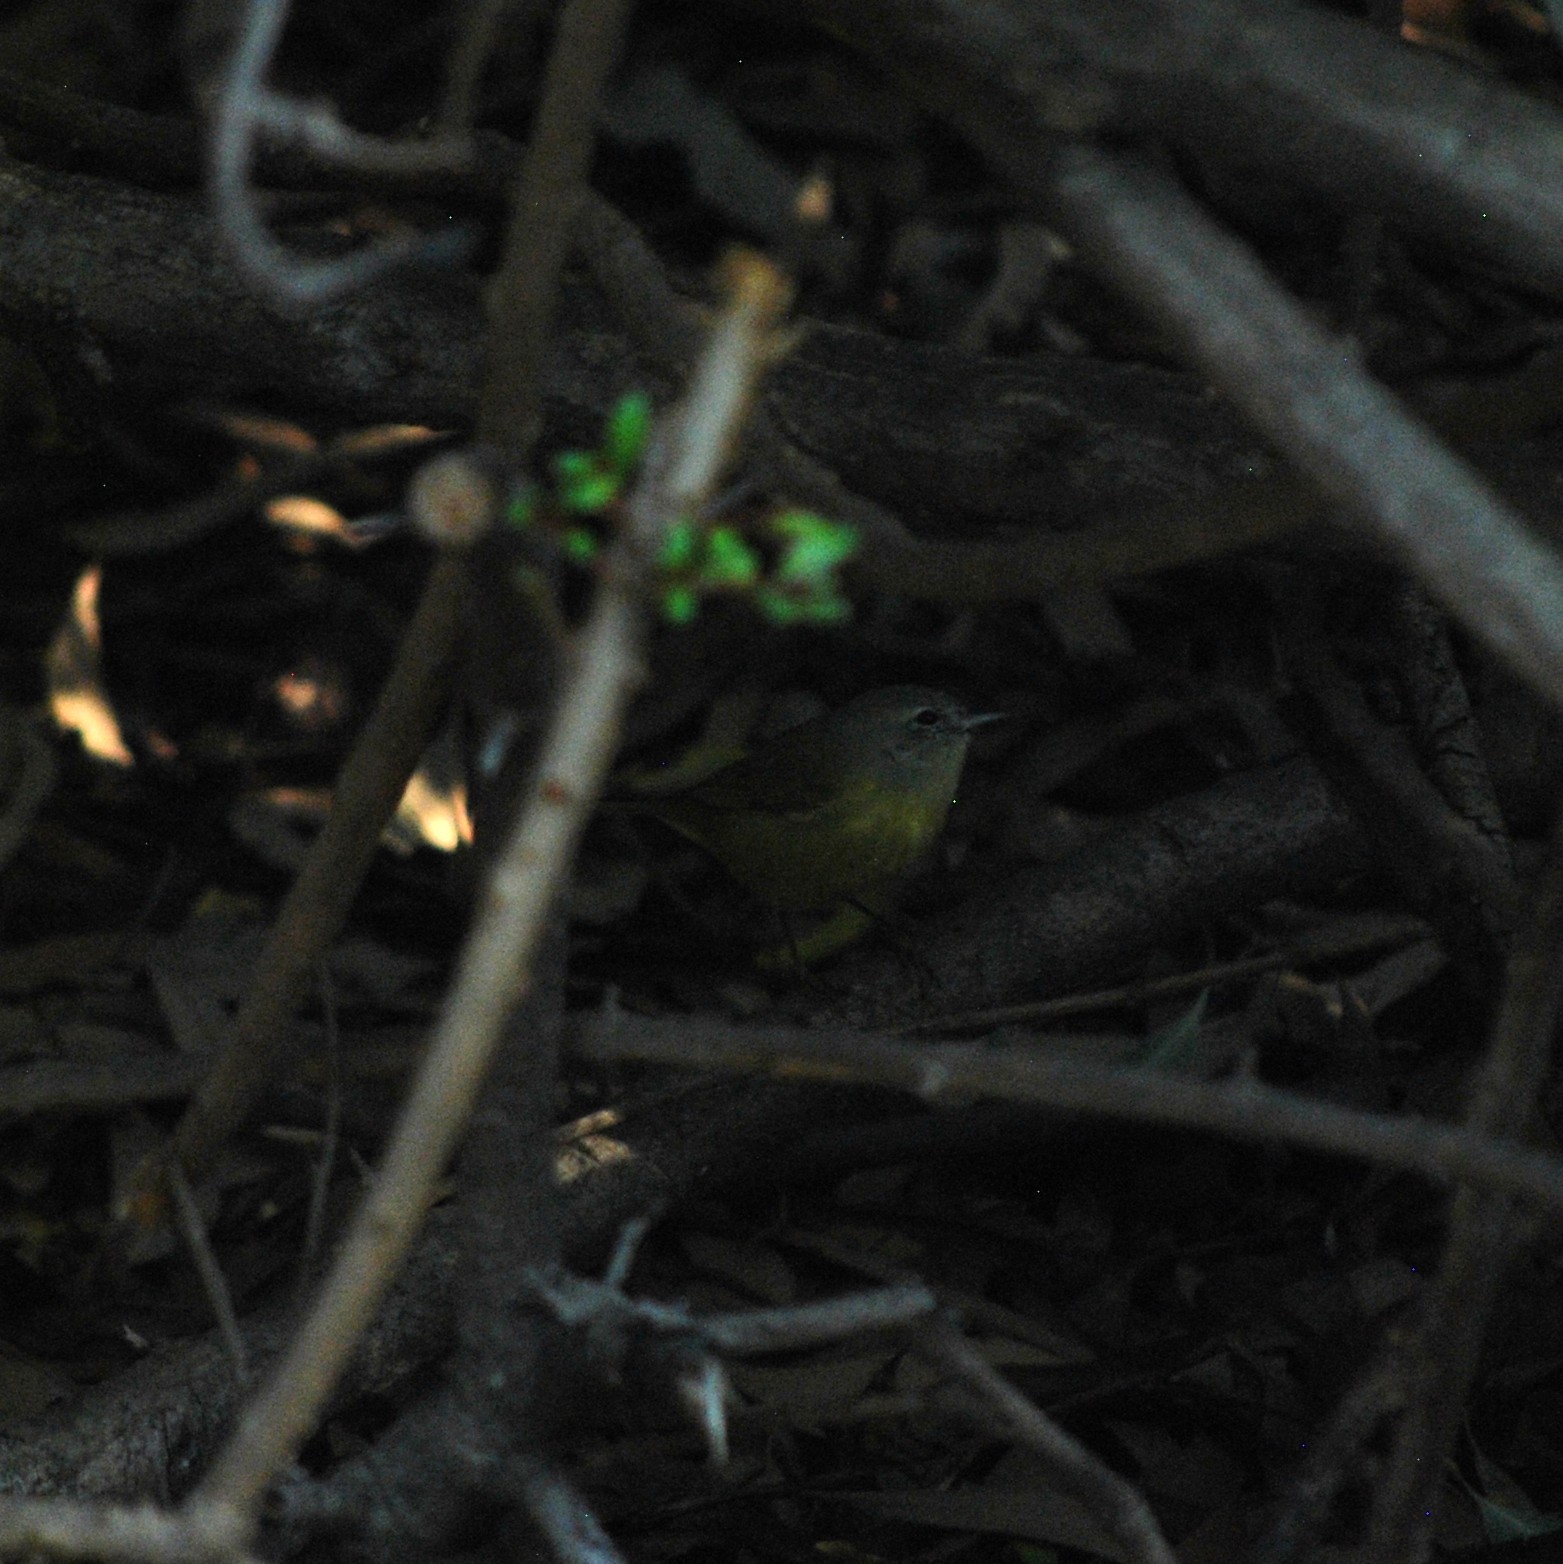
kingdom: Animalia
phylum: Chordata
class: Aves
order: Passeriformes
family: Parulidae
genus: Leiothlypis
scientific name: Leiothlypis celata
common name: Orange-crowned warbler
